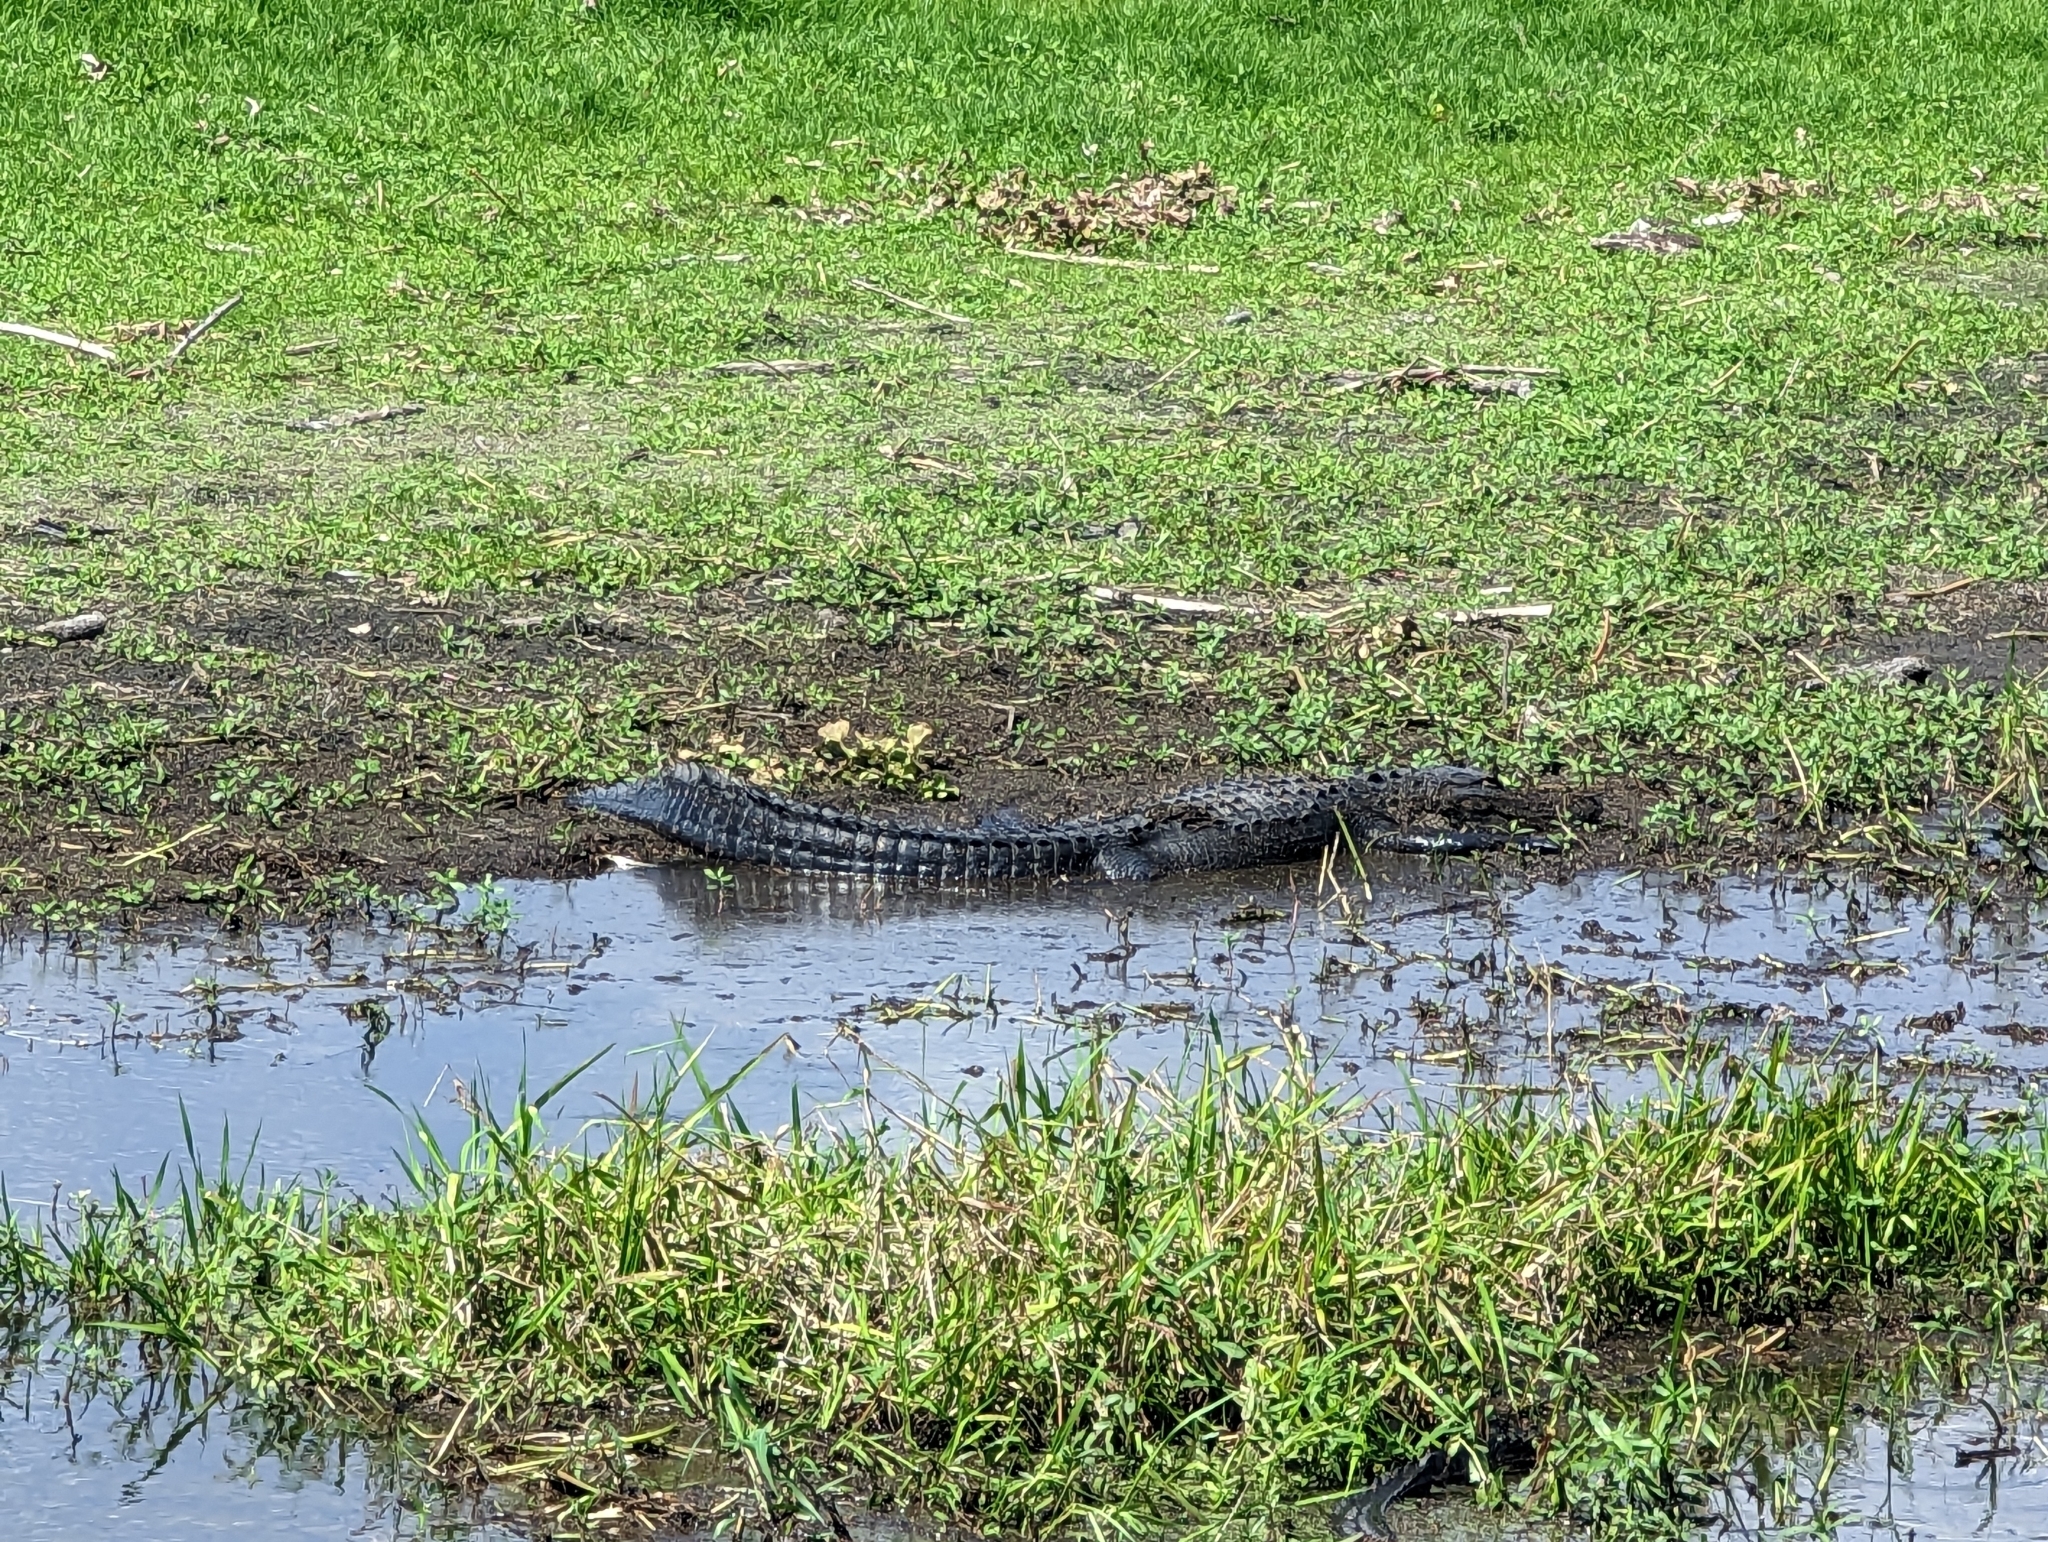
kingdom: Animalia
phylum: Chordata
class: Crocodylia
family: Alligatoridae
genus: Alligator
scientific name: Alligator mississippiensis
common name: American alligator
